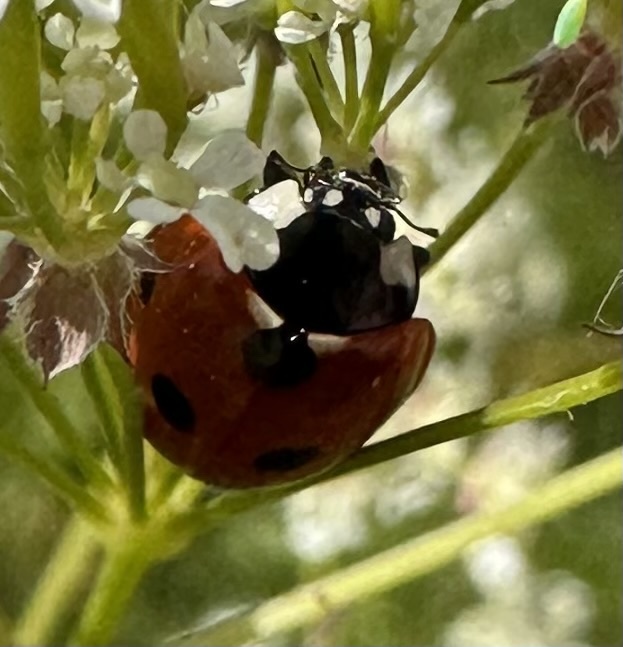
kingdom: Animalia
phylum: Arthropoda
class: Insecta
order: Coleoptera
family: Coccinellidae
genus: Coccinella
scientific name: Coccinella septempunctata
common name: Sevenspotted lady beetle
